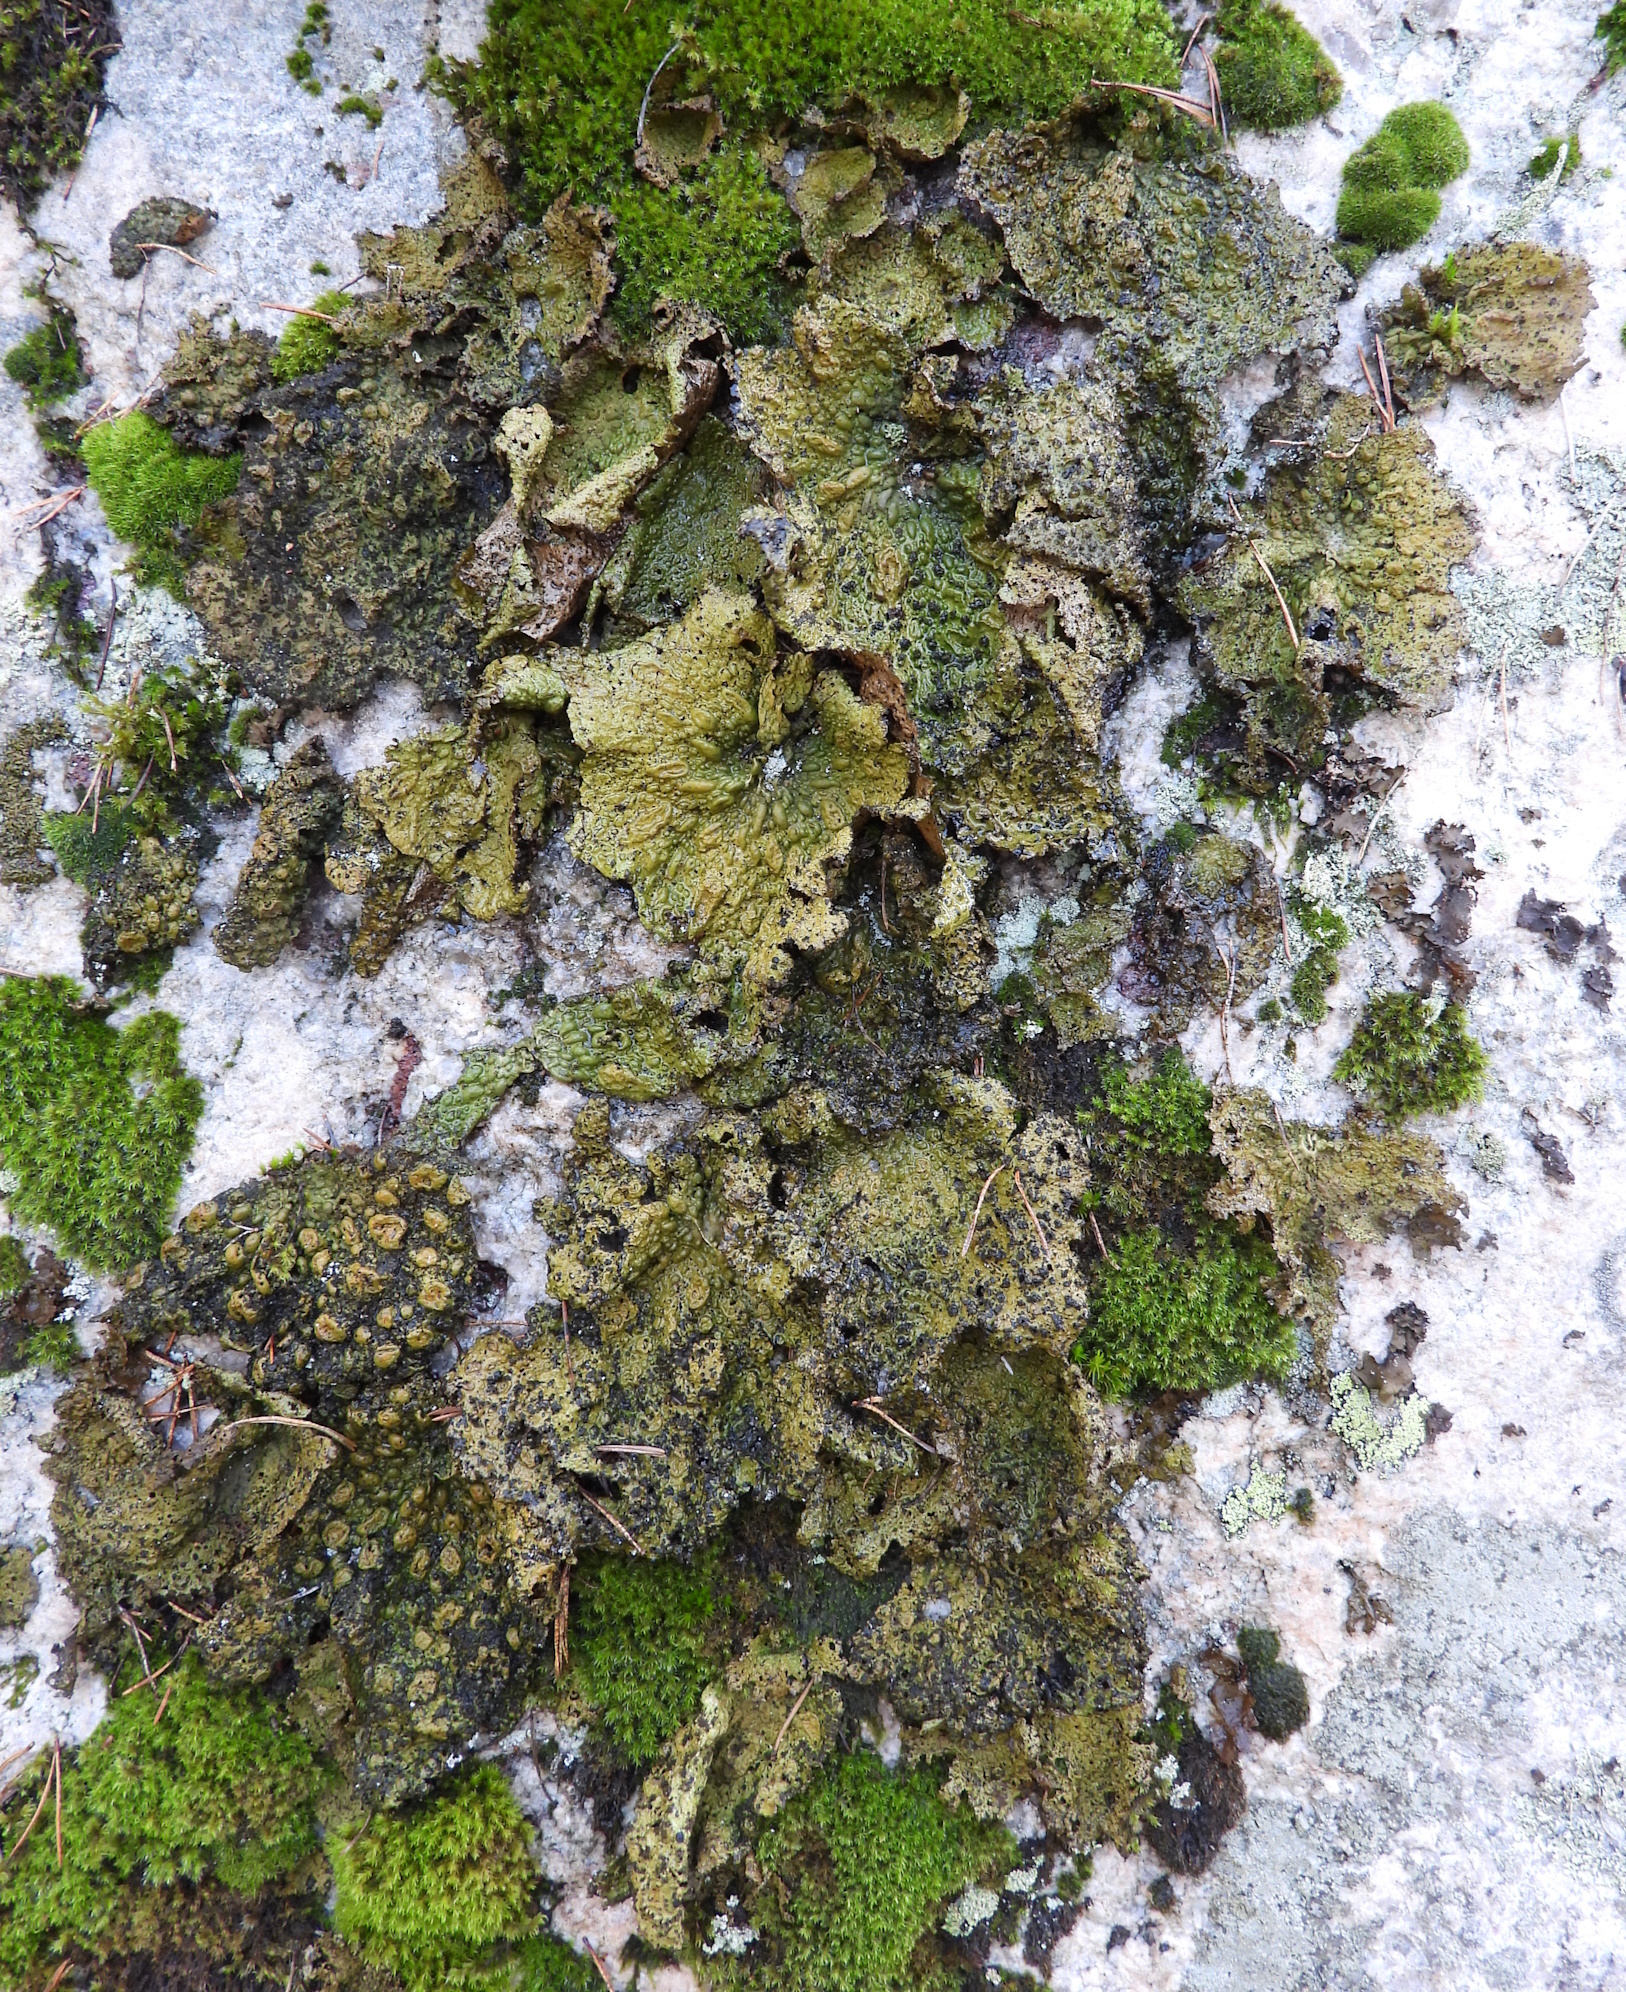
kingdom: Fungi
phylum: Ascomycota
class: Lecanoromycetes
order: Umbilicariales
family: Umbilicariaceae
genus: Lasallia
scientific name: Lasallia pustulata
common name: Blistered toadskin lichen
